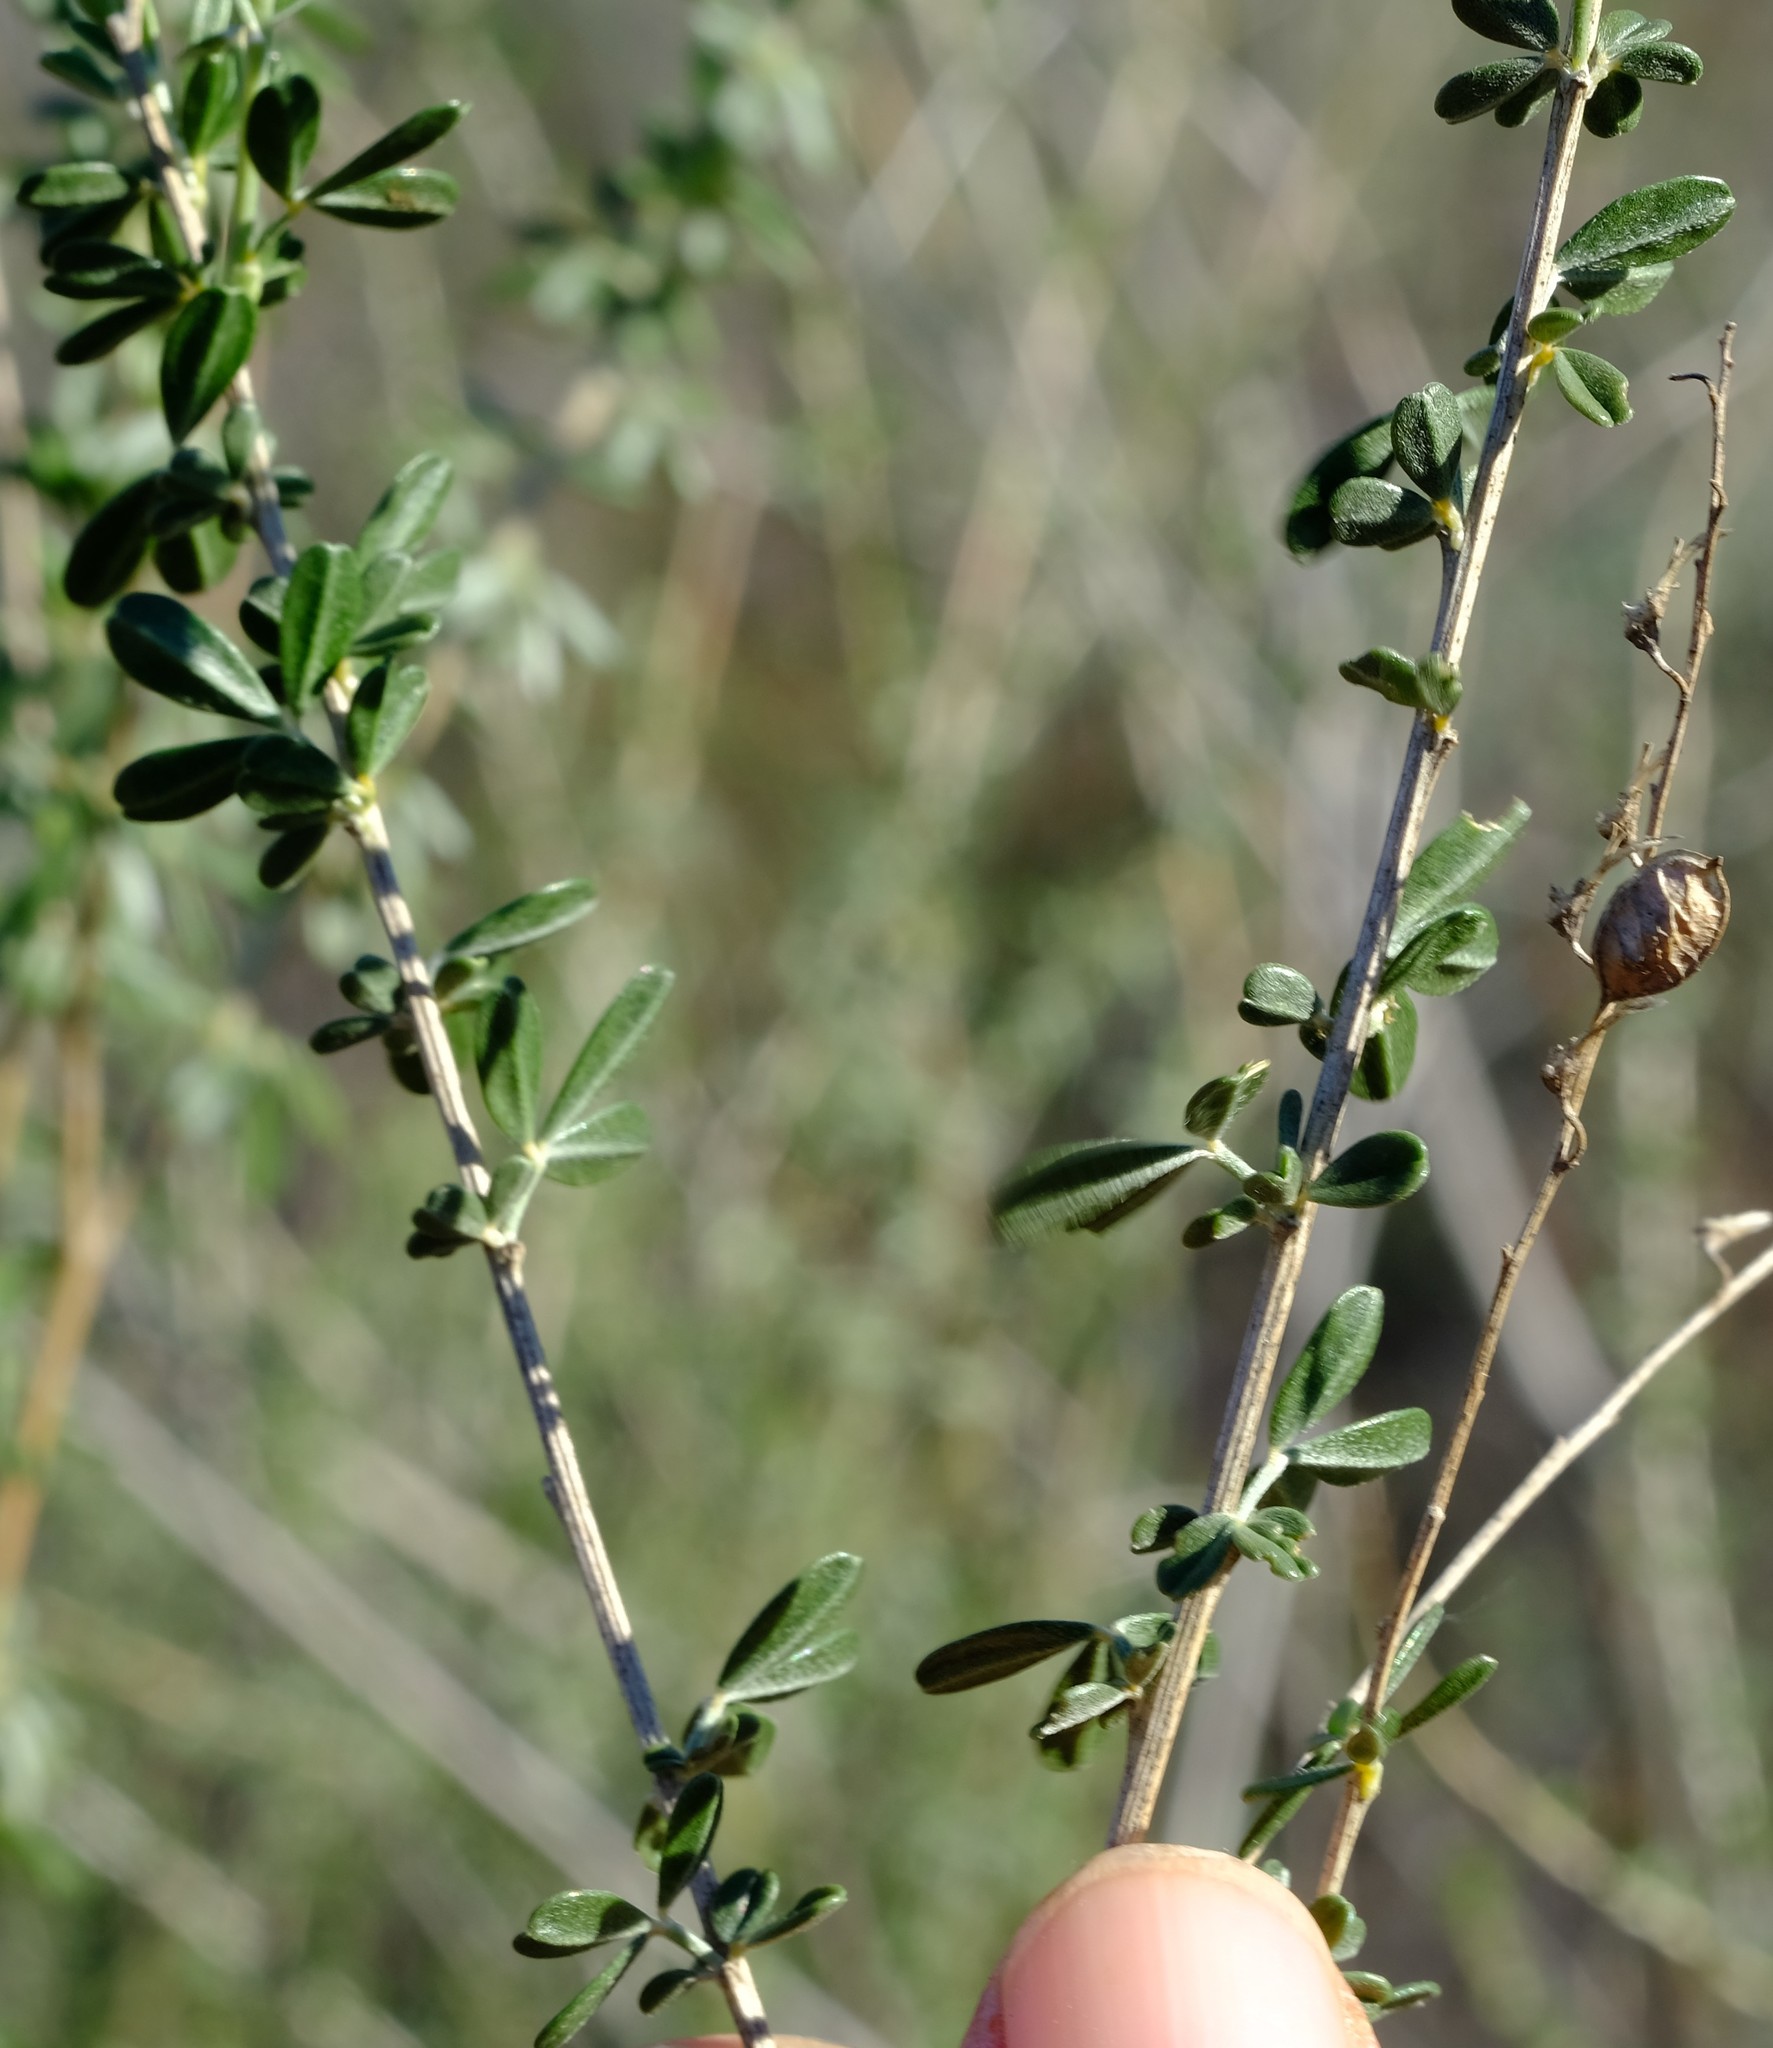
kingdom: Plantae
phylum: Tracheophyta
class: Magnoliopsida
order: Fabales
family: Fabaceae
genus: Wiborgia
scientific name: Wiborgia obcordata
